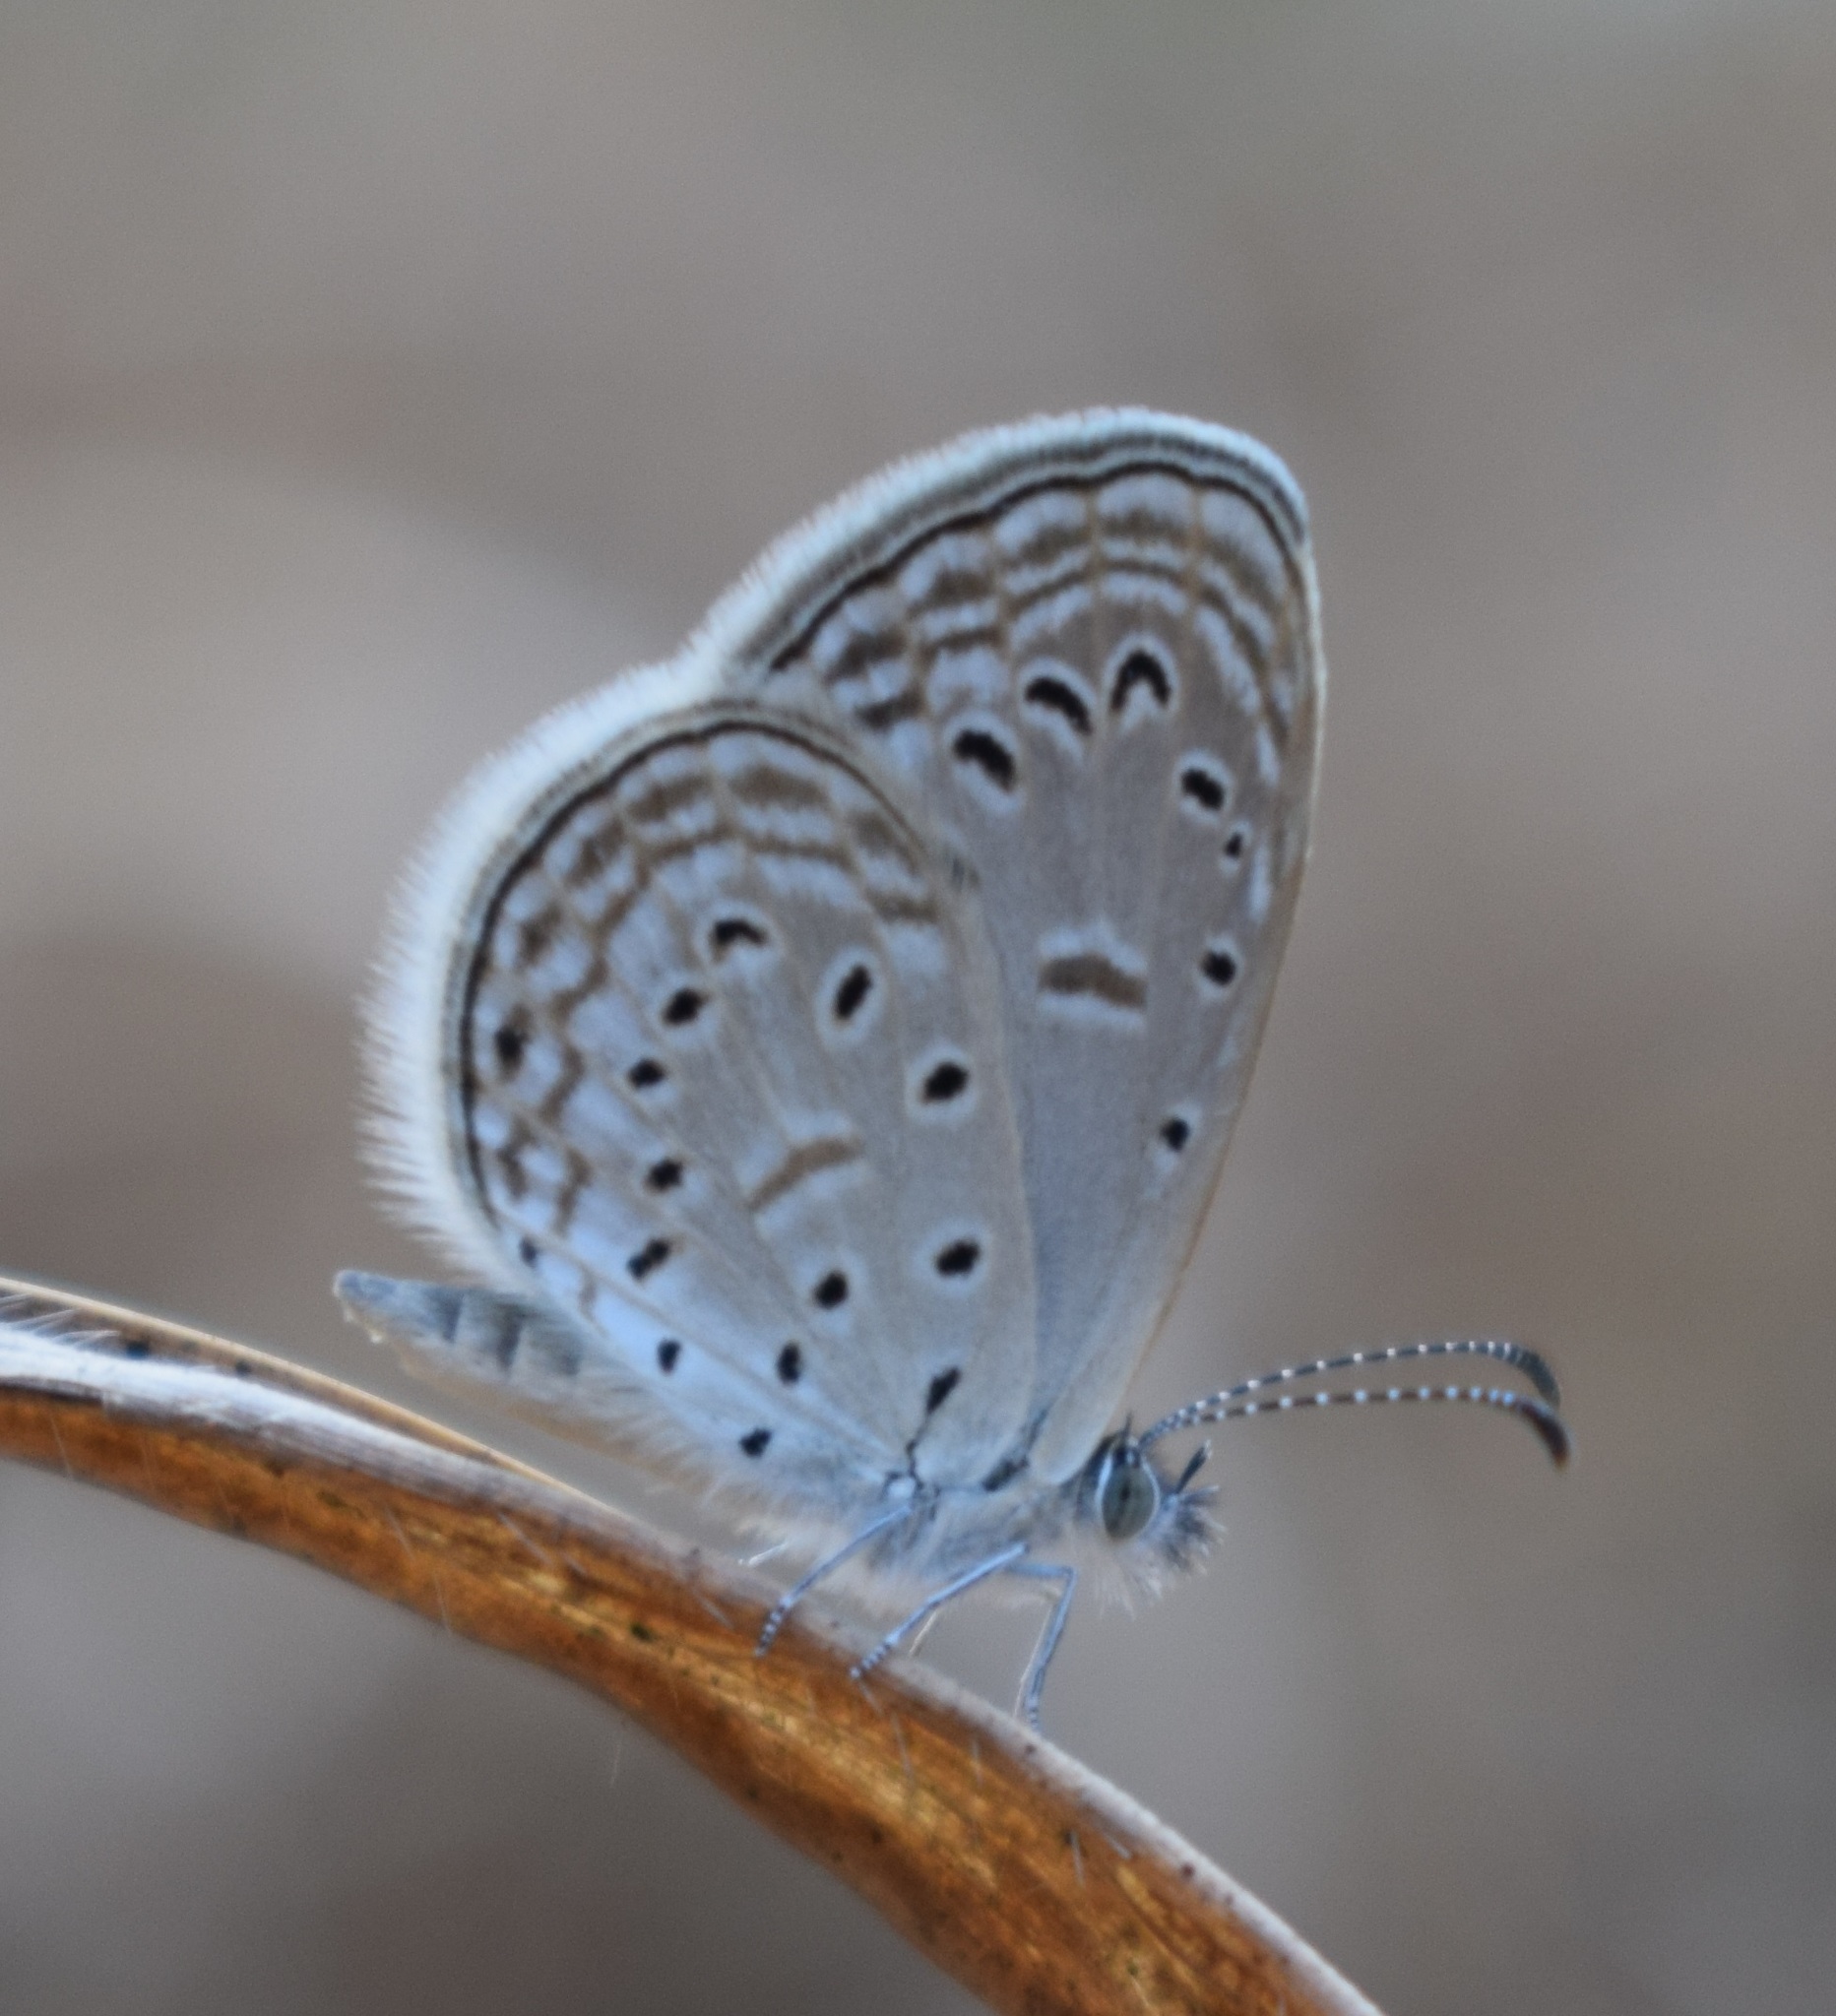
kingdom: Animalia
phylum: Arthropoda
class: Insecta
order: Lepidoptera
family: Lycaenidae
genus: Zizula
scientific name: Zizula hylax
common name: Gaika blue
